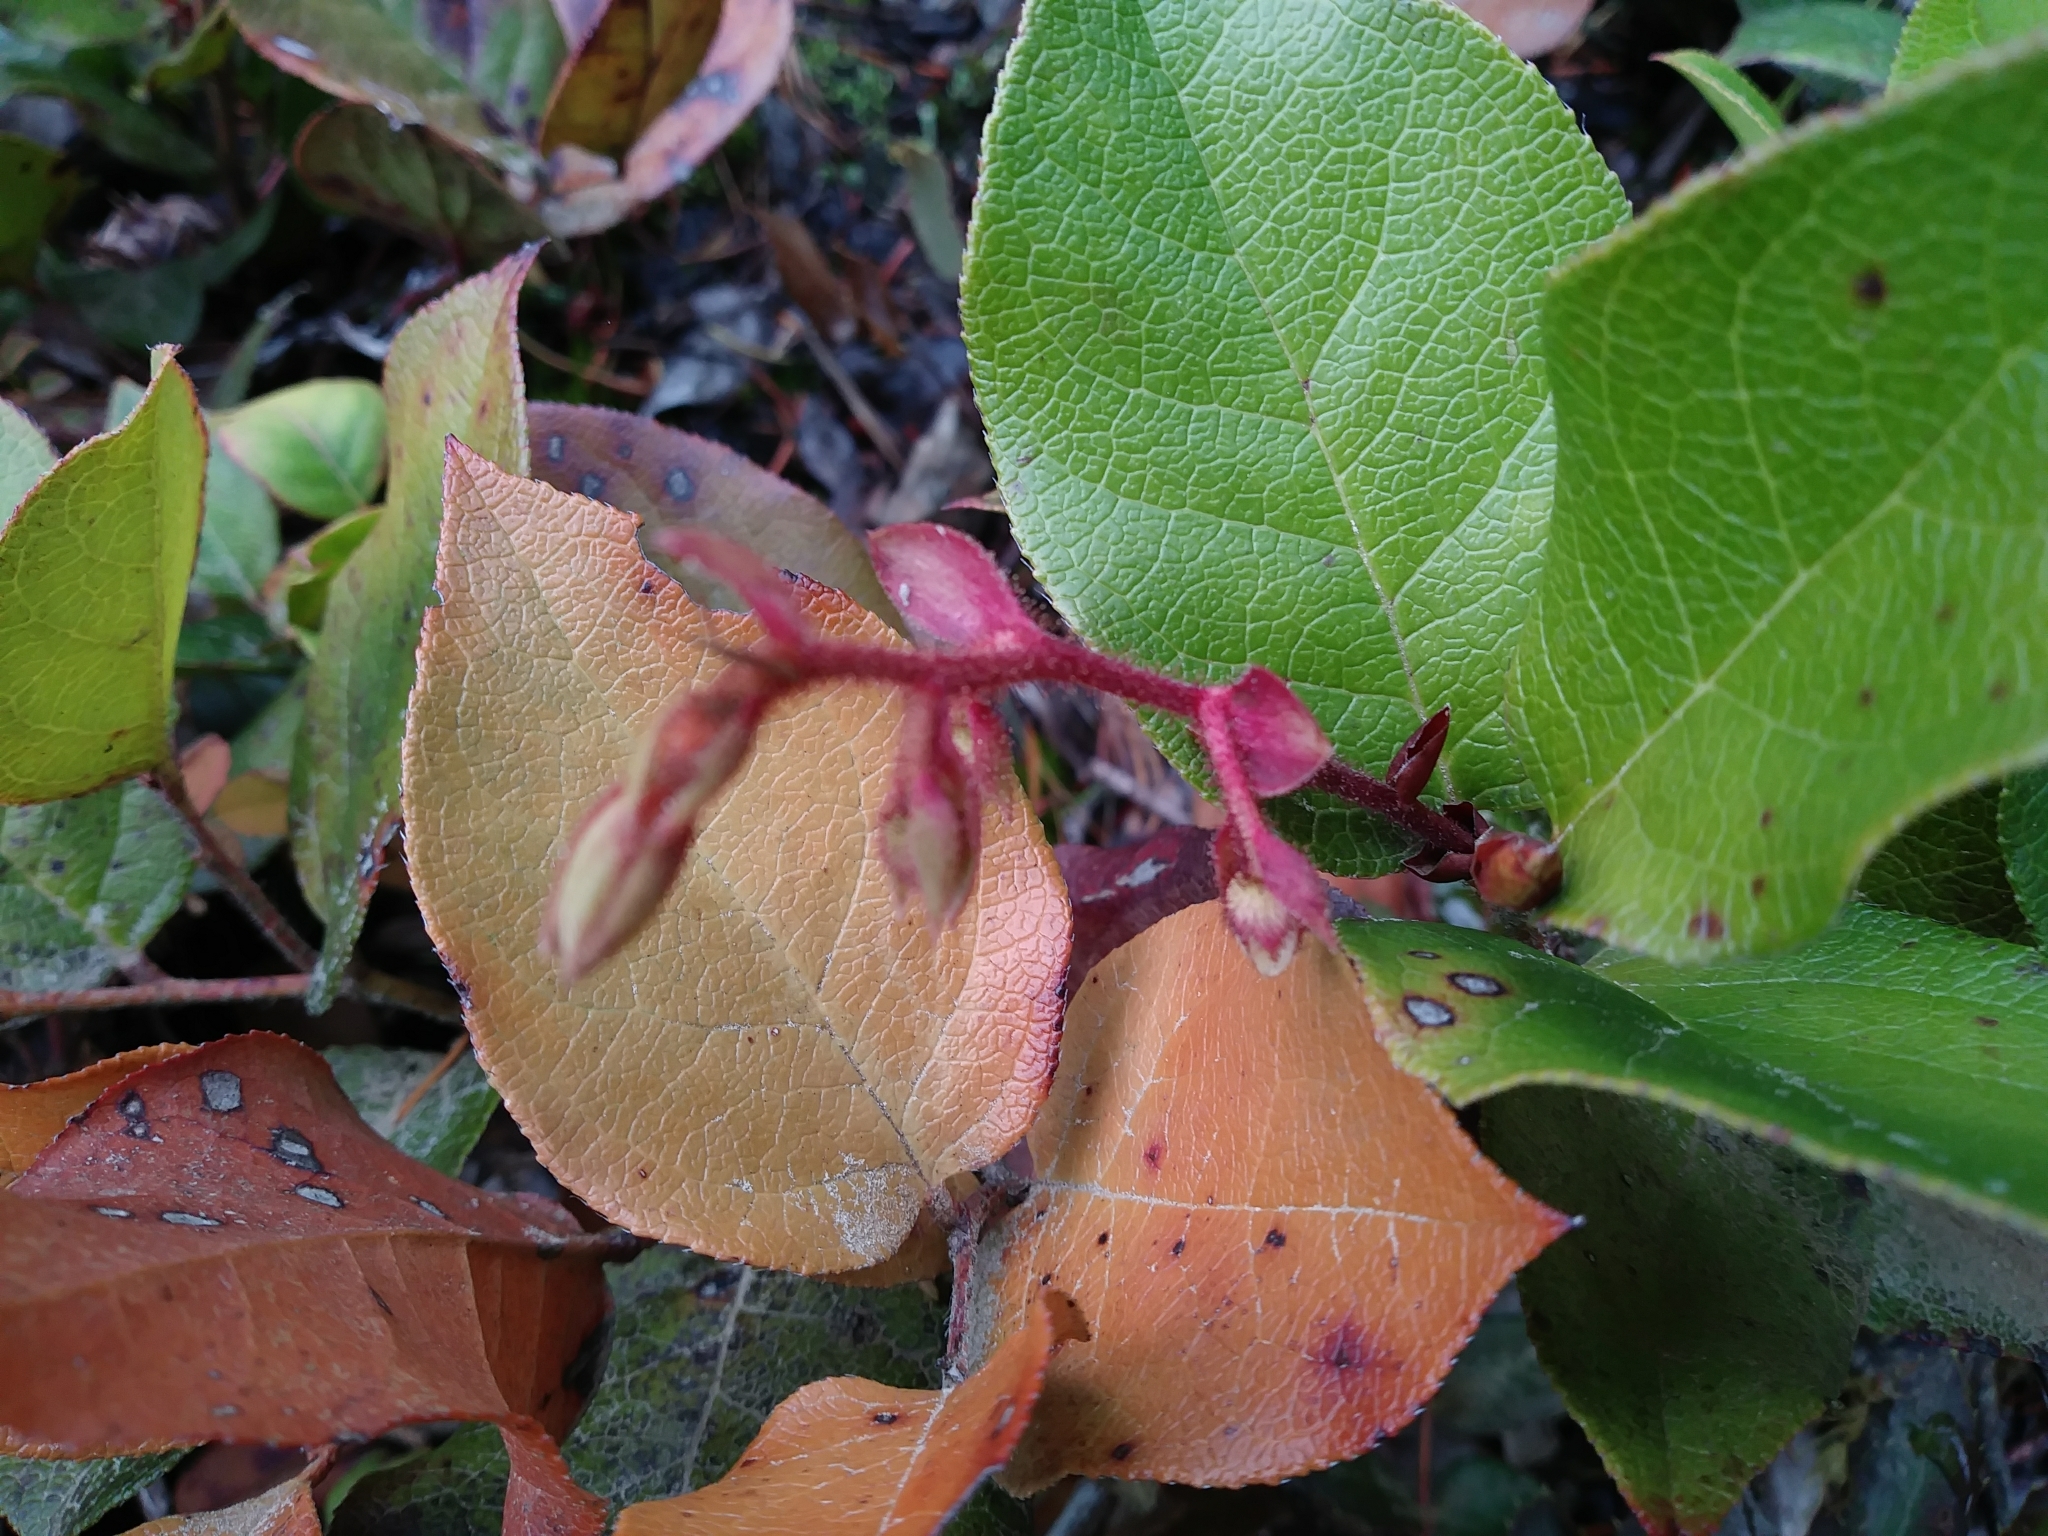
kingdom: Plantae
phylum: Tracheophyta
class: Magnoliopsida
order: Ericales
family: Ericaceae
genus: Gaultheria
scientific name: Gaultheria shallon
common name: Shallon
